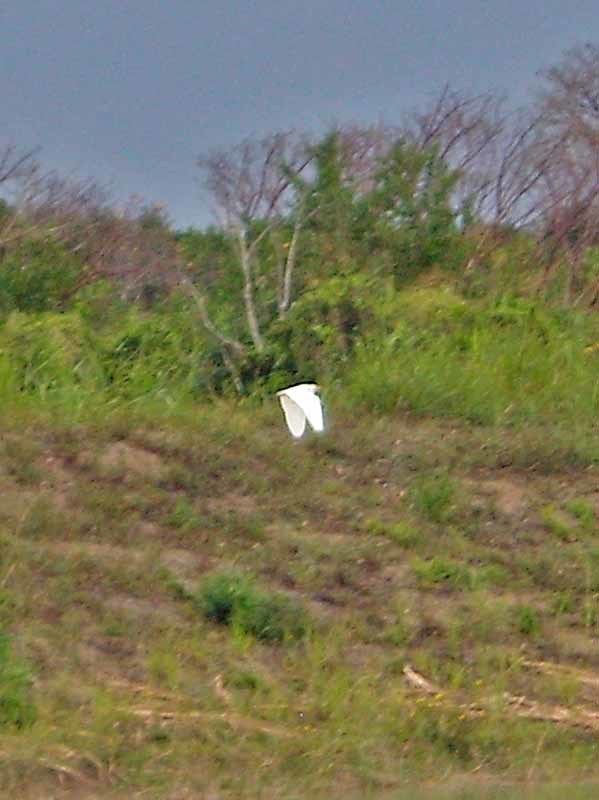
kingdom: Animalia
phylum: Chordata
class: Aves
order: Pelecaniformes
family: Ardeidae
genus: Bubulcus
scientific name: Bubulcus ibis
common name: Cattle egret
